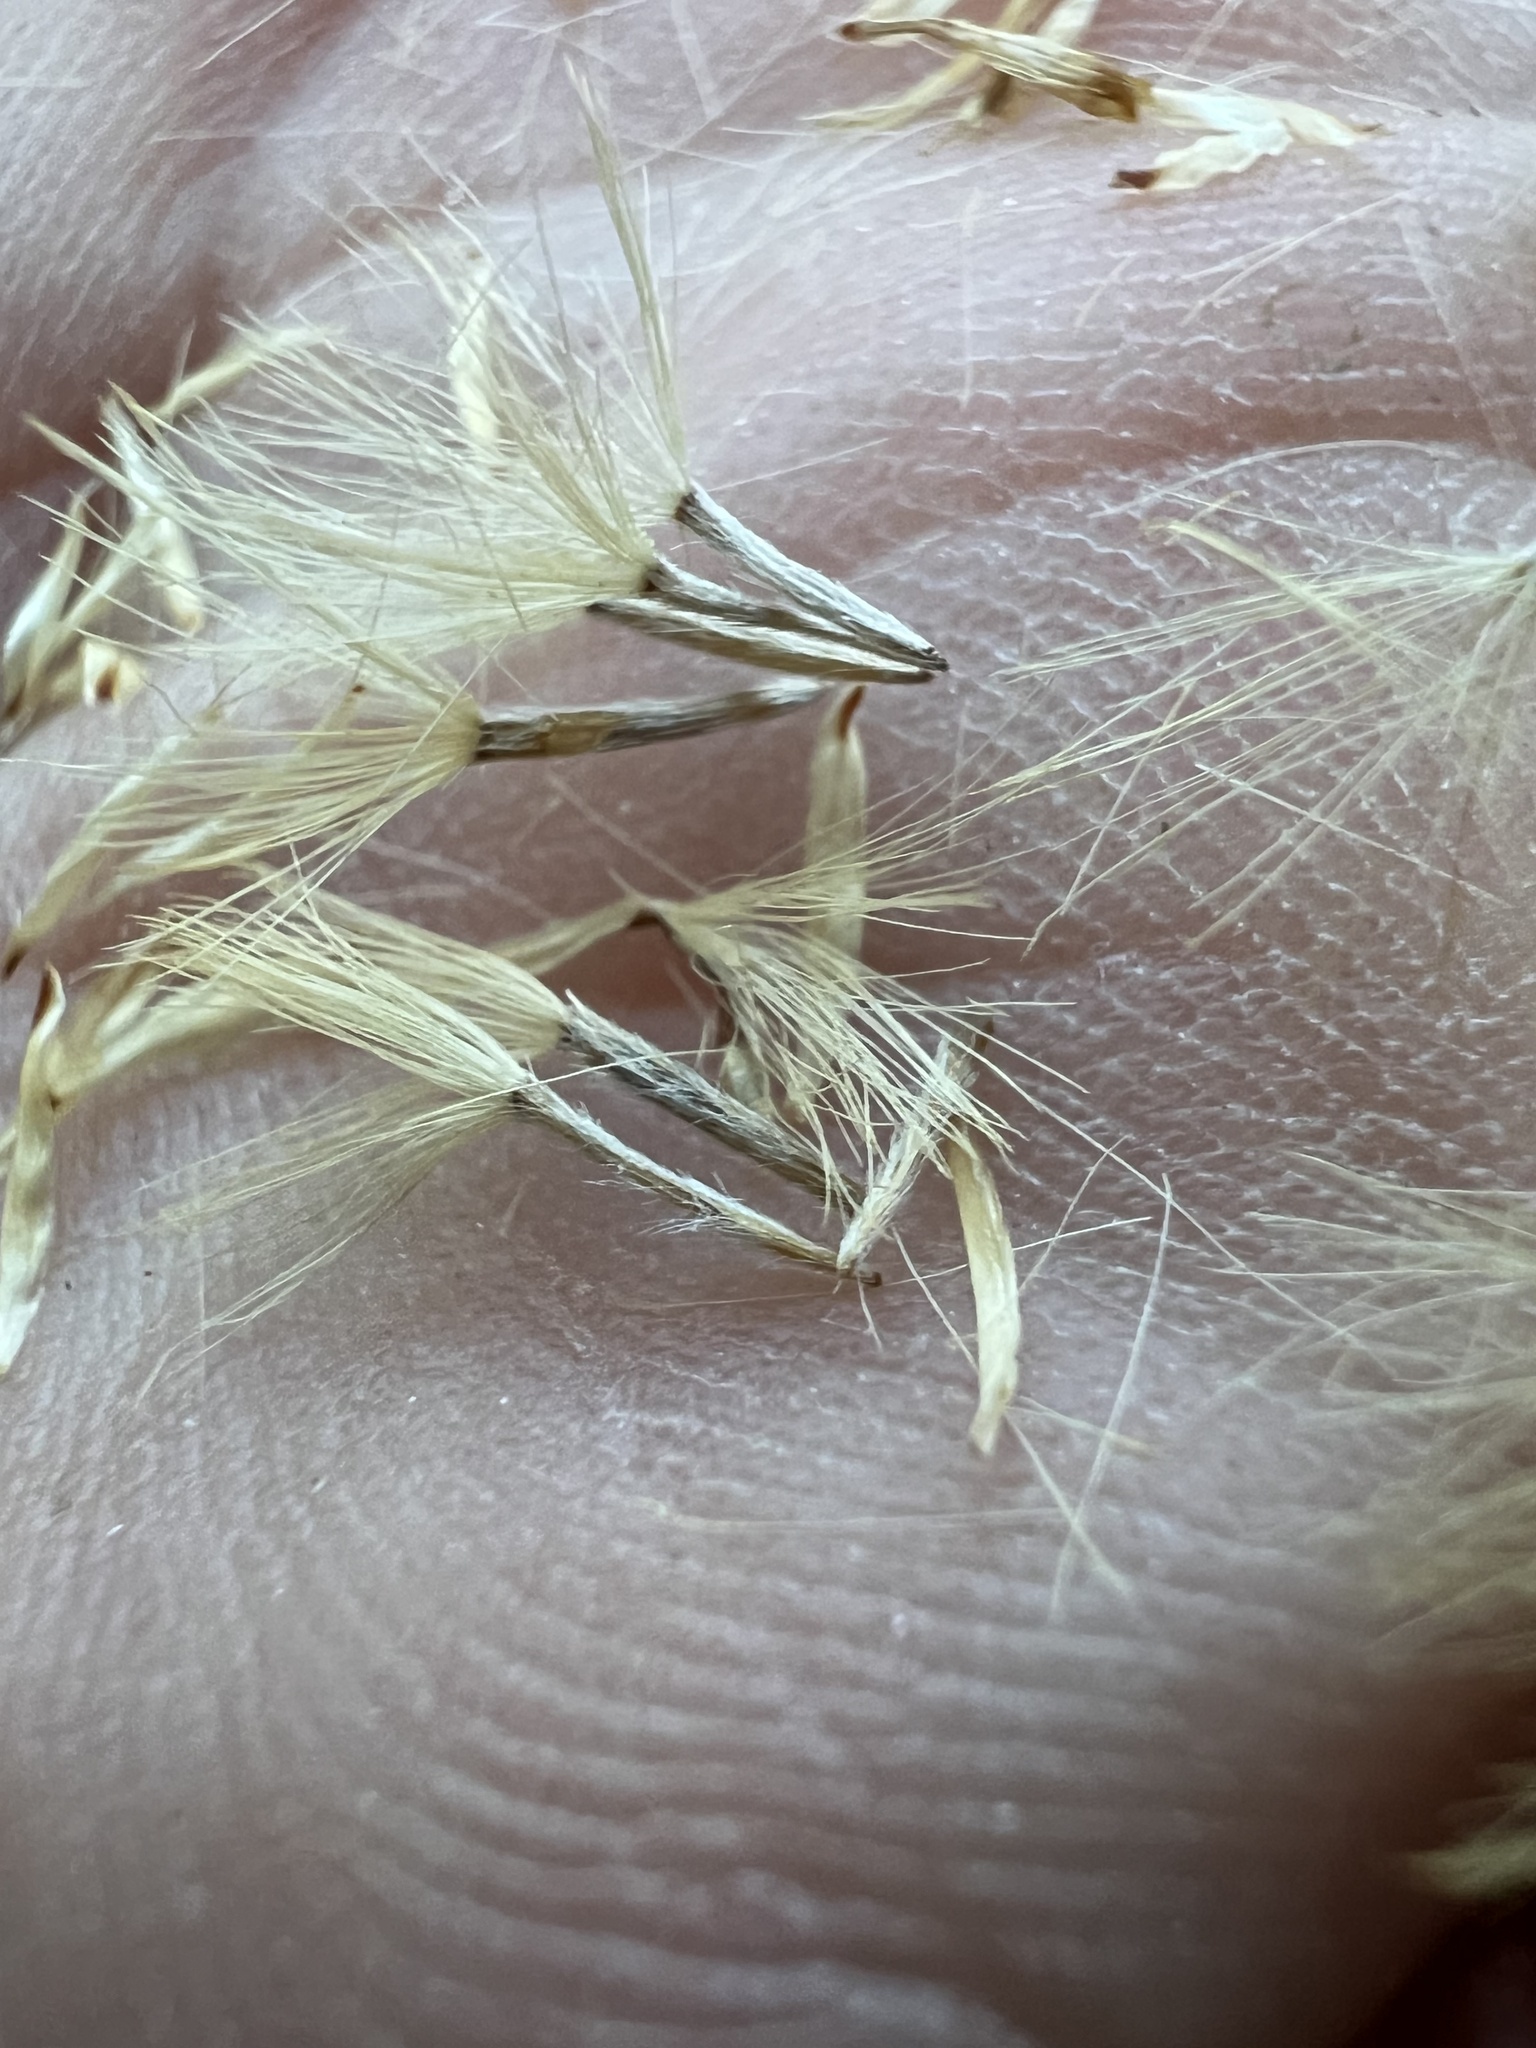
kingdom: Plantae
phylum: Tracheophyta
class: Magnoliopsida
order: Asterales
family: Asteraceae
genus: Ericameria
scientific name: Ericameria teretifolia
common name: Round-leaf rabbitbrush
